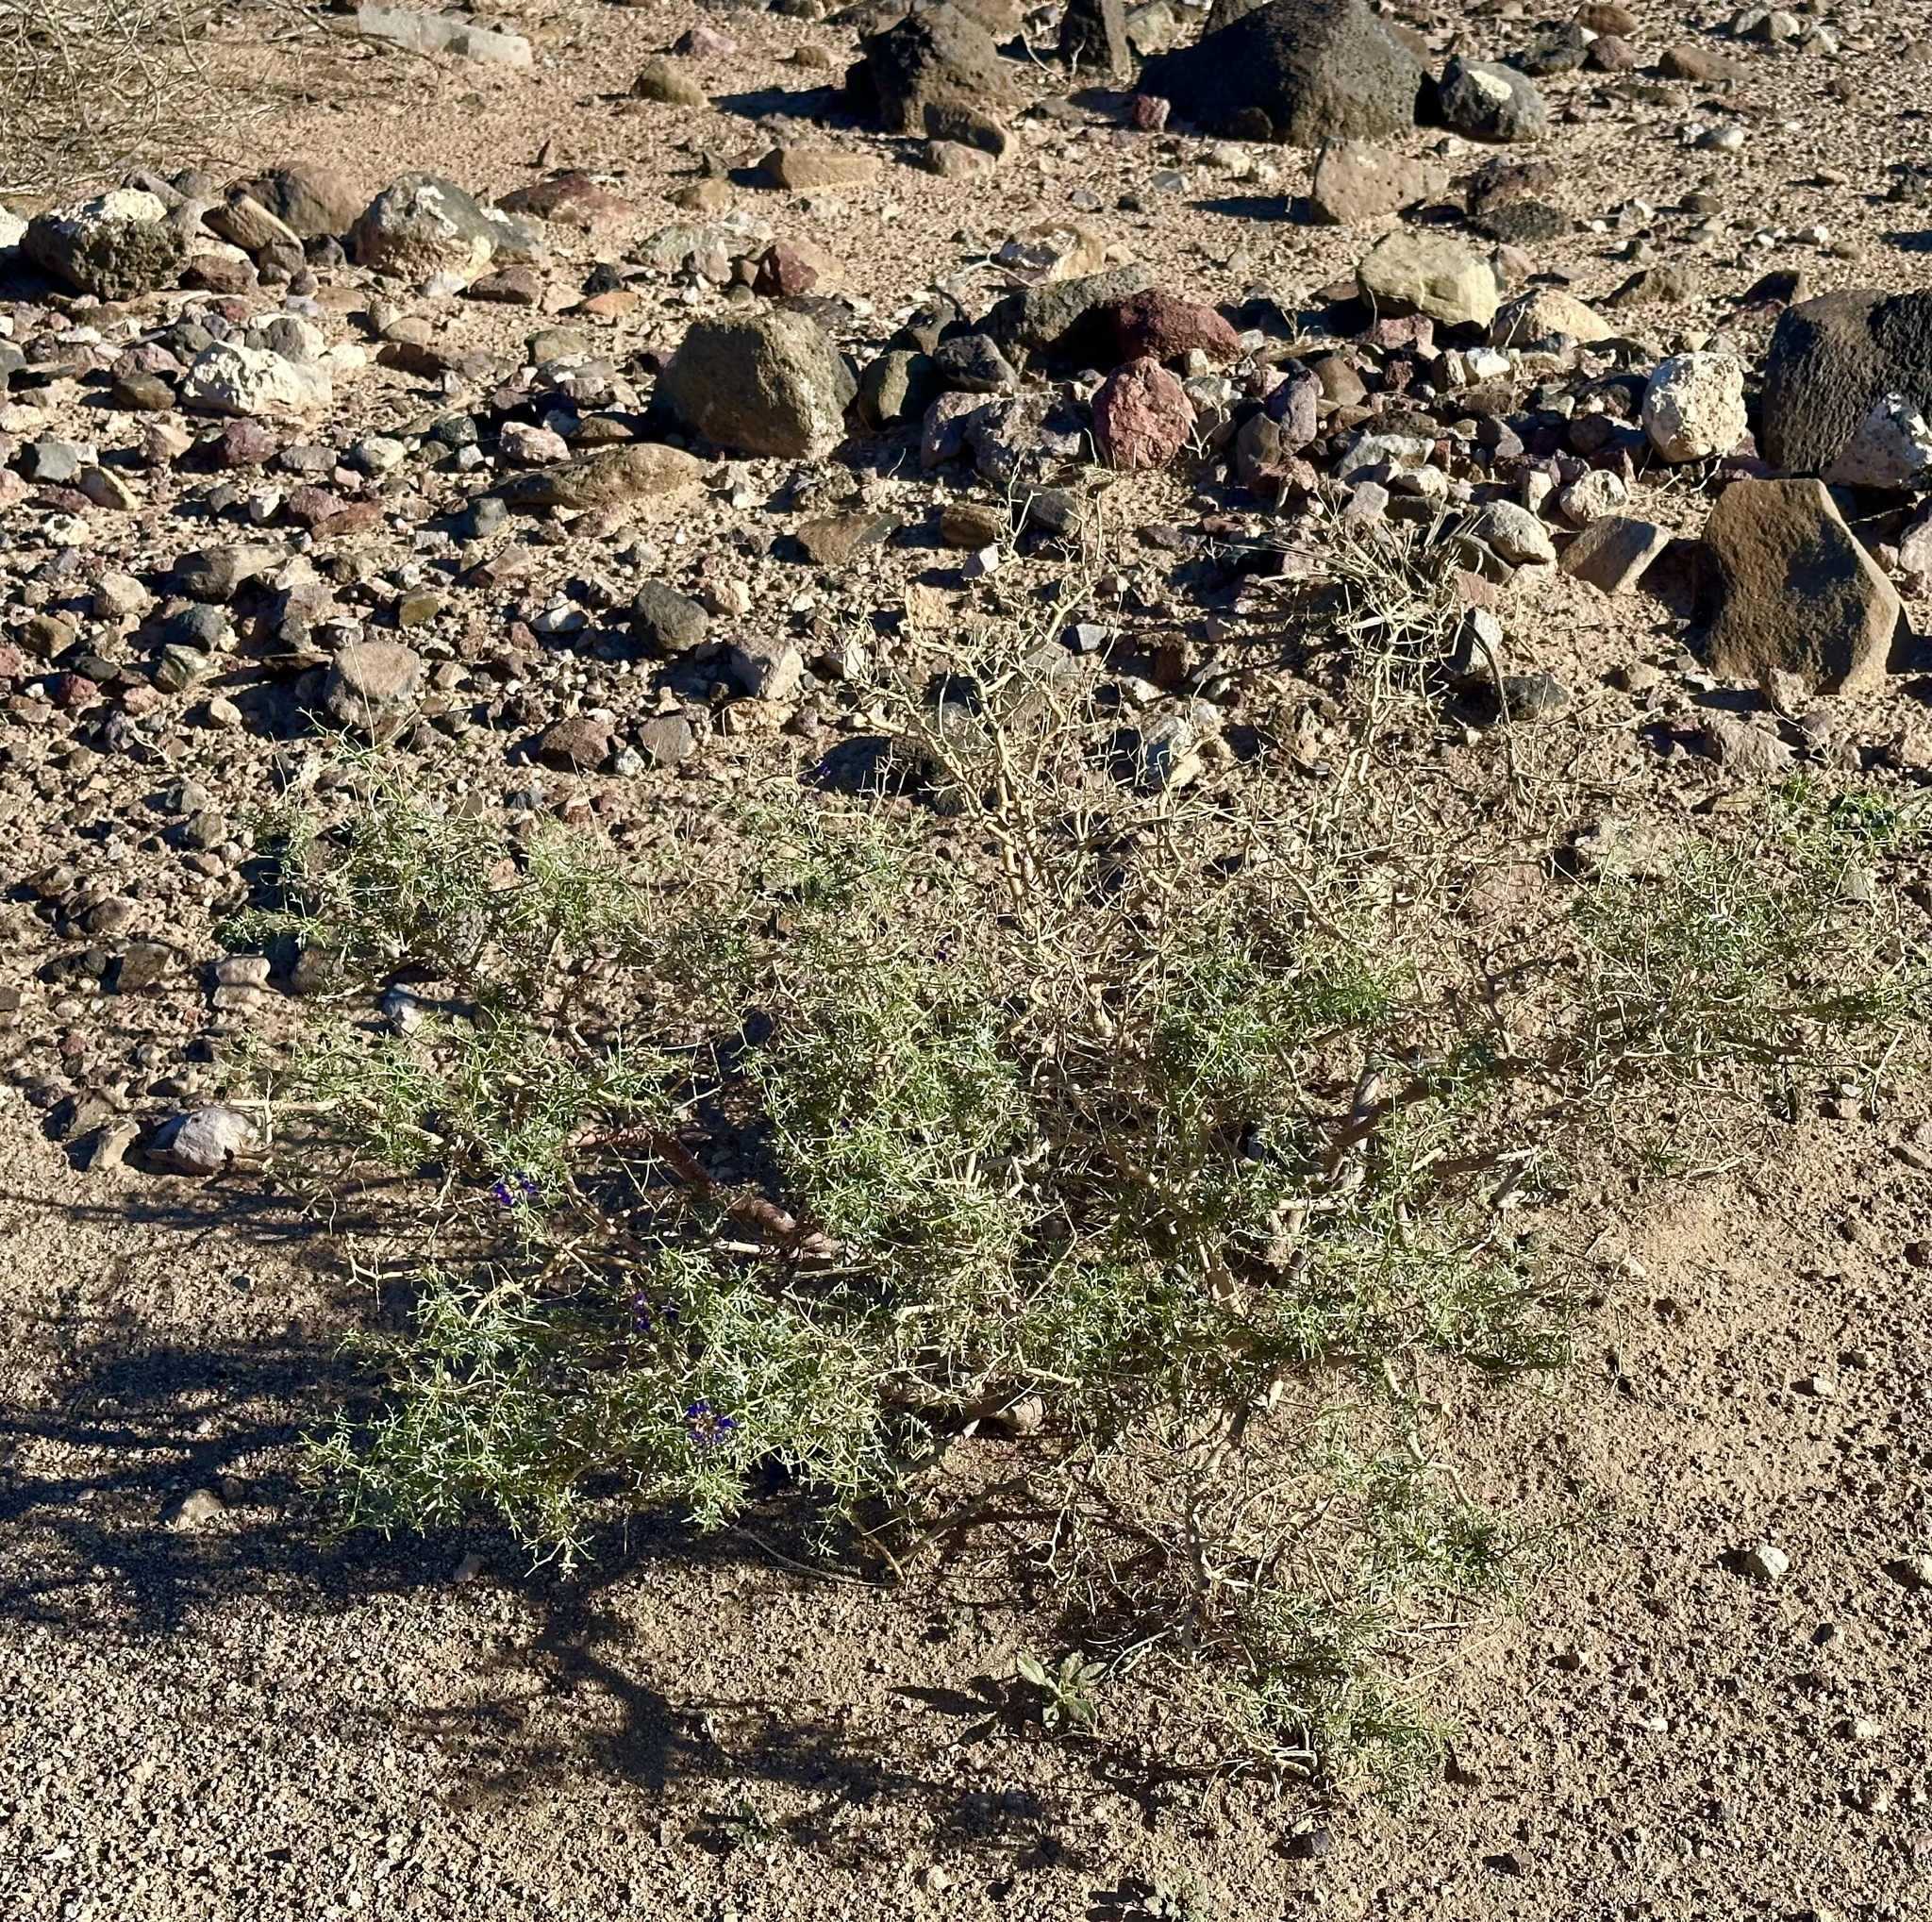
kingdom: Plantae
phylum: Tracheophyta
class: Magnoliopsida
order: Fabales
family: Fabaceae
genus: Psorothamnus
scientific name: Psorothamnus arborescens
